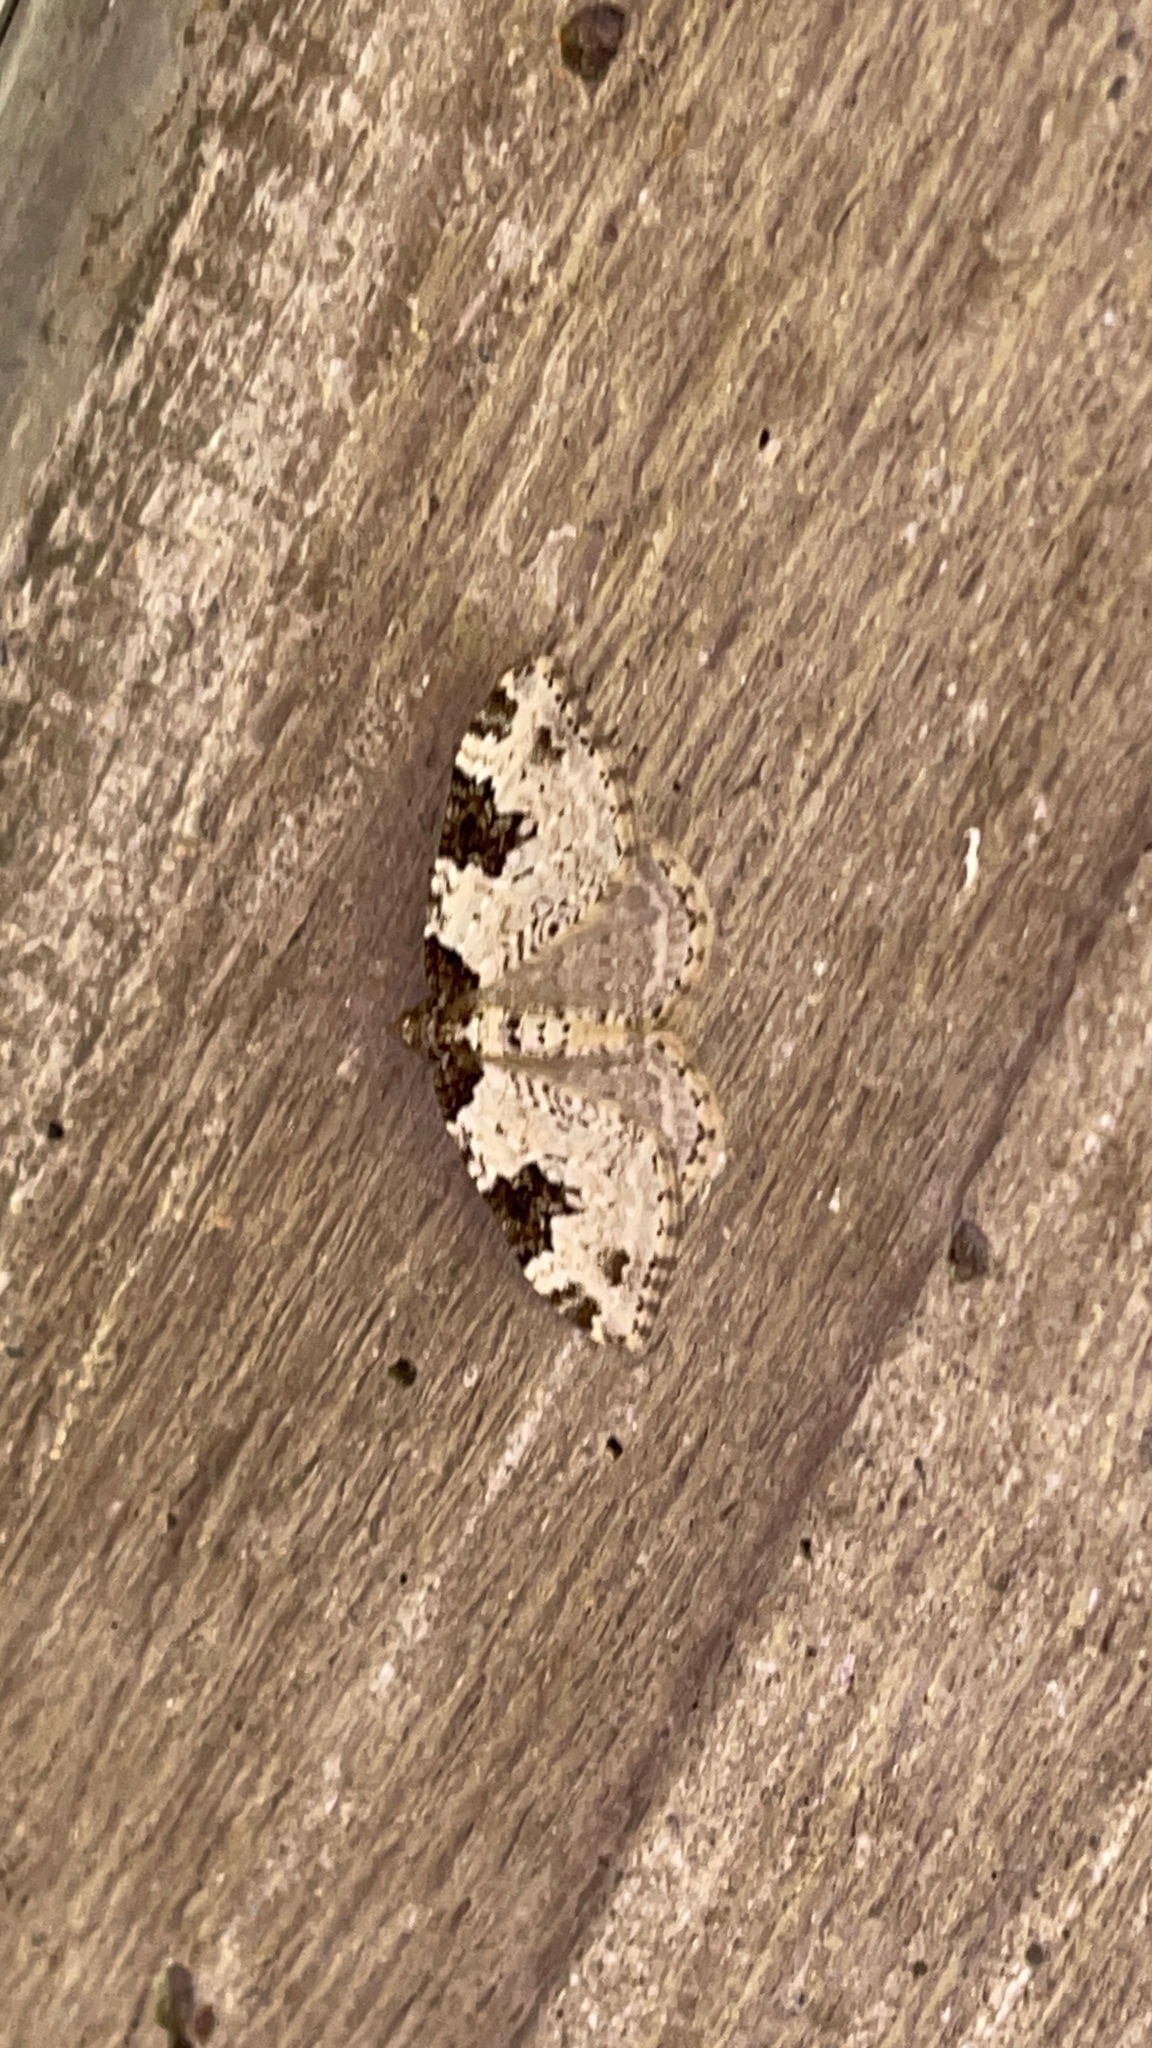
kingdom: Animalia
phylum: Arthropoda
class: Insecta
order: Lepidoptera
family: Geometridae
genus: Xanthorhoe
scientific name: Xanthorhoe fluctuata
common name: Garden carpet
